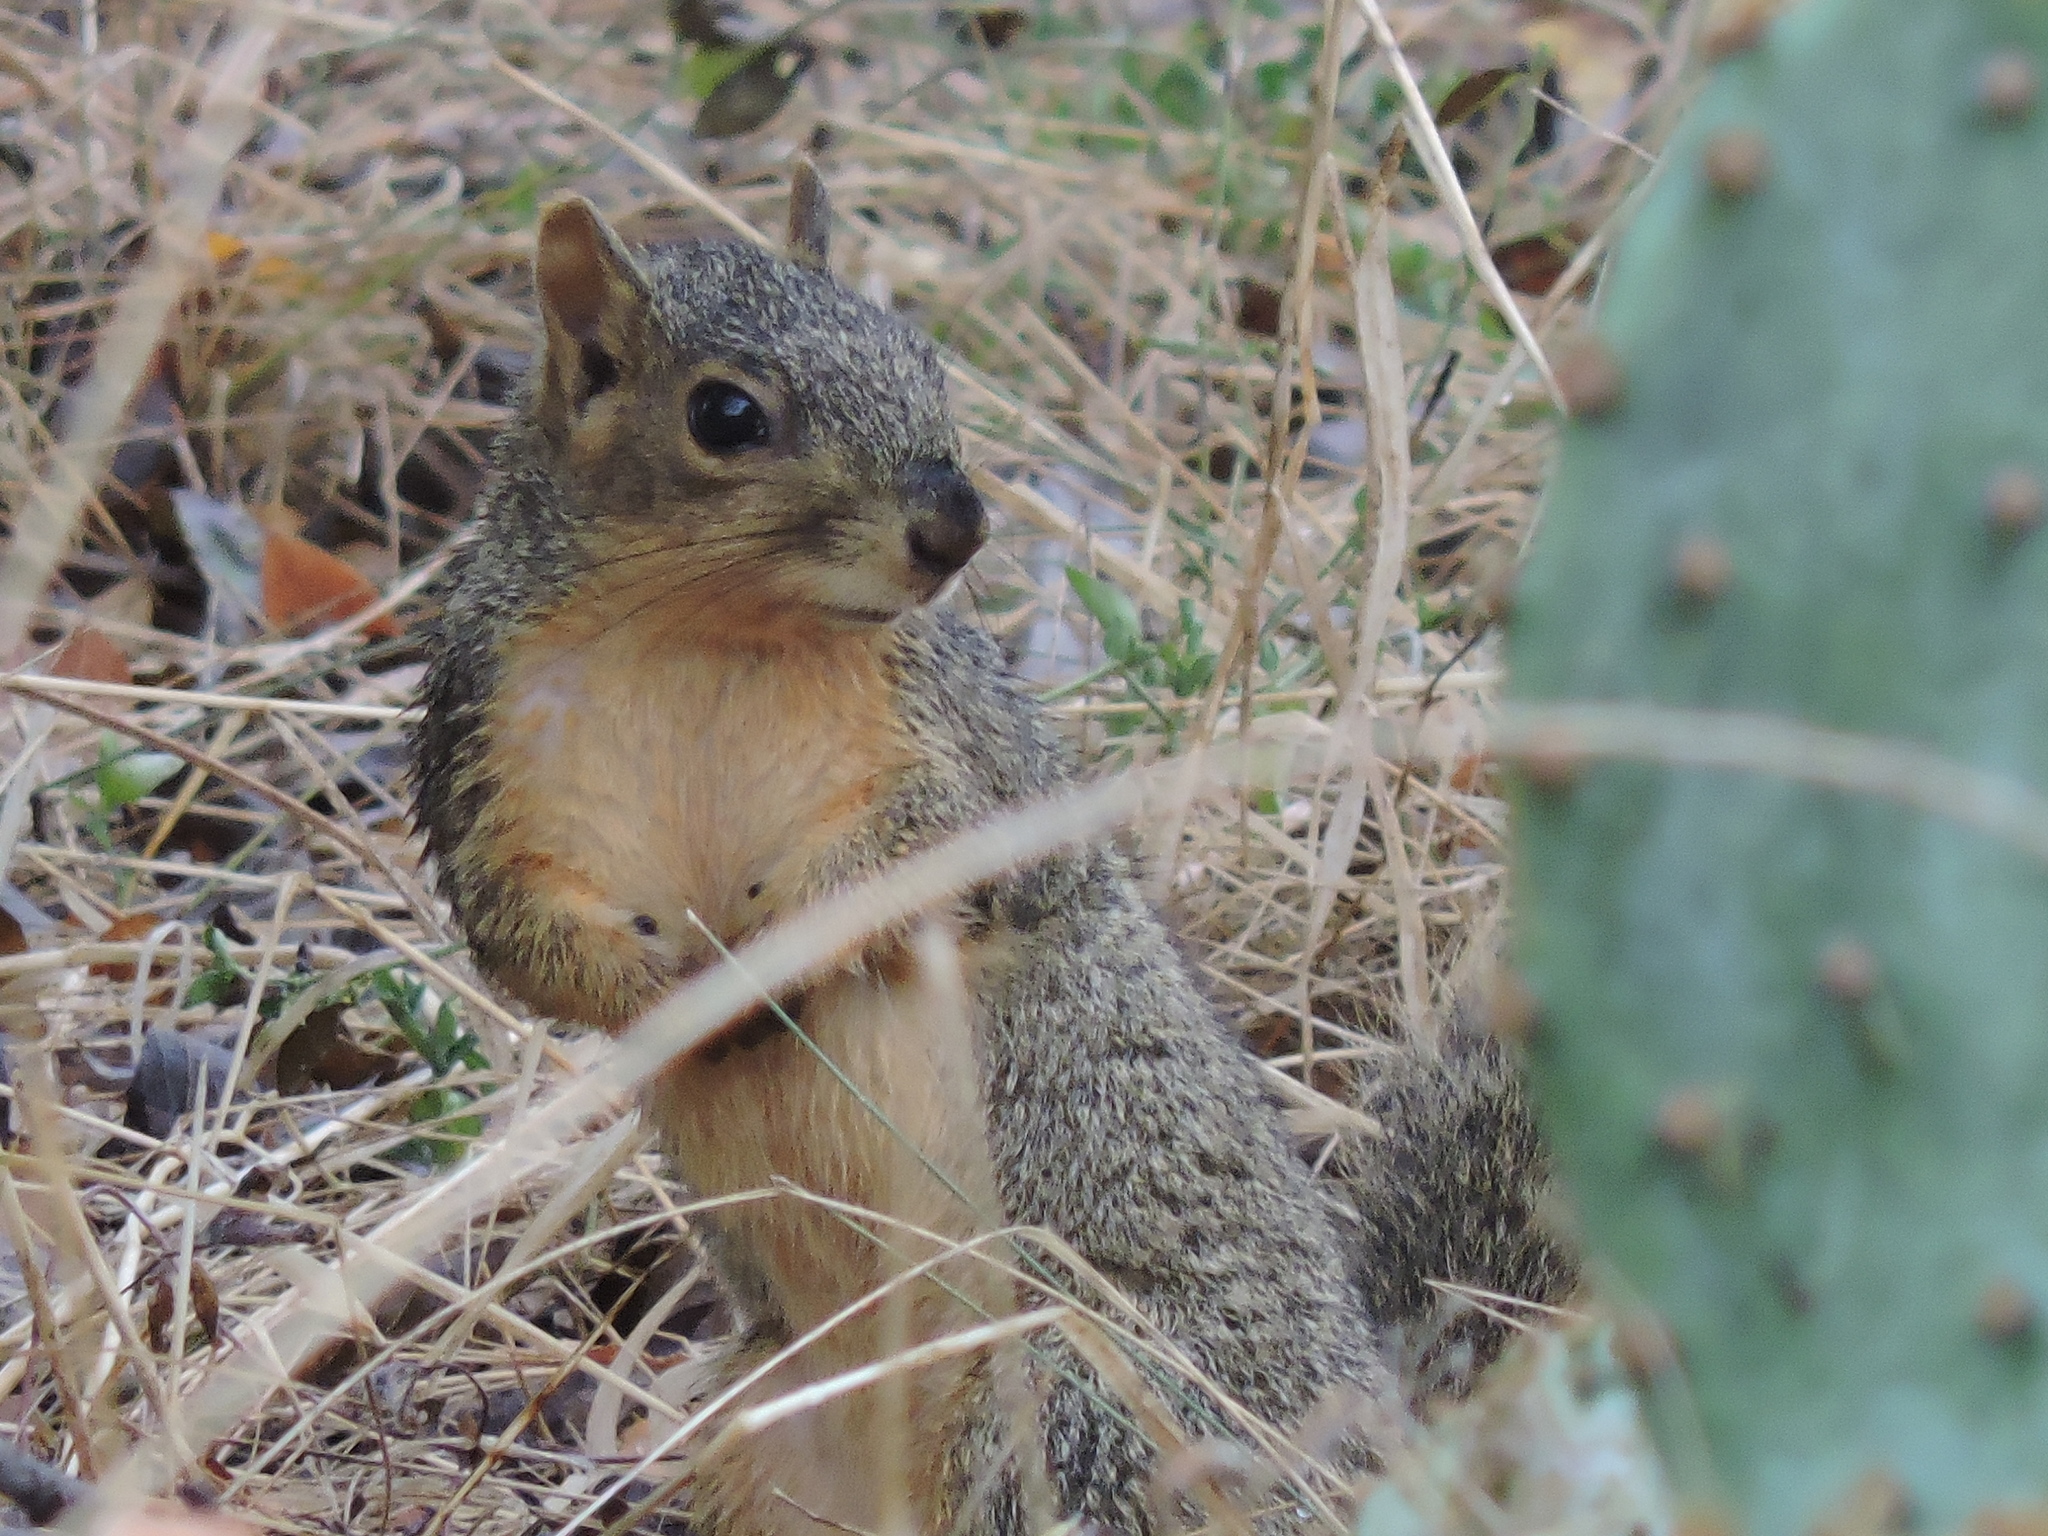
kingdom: Animalia
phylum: Chordata
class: Mammalia
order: Rodentia
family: Sciuridae
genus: Sciurus
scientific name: Sciurus niger
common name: Fox squirrel
